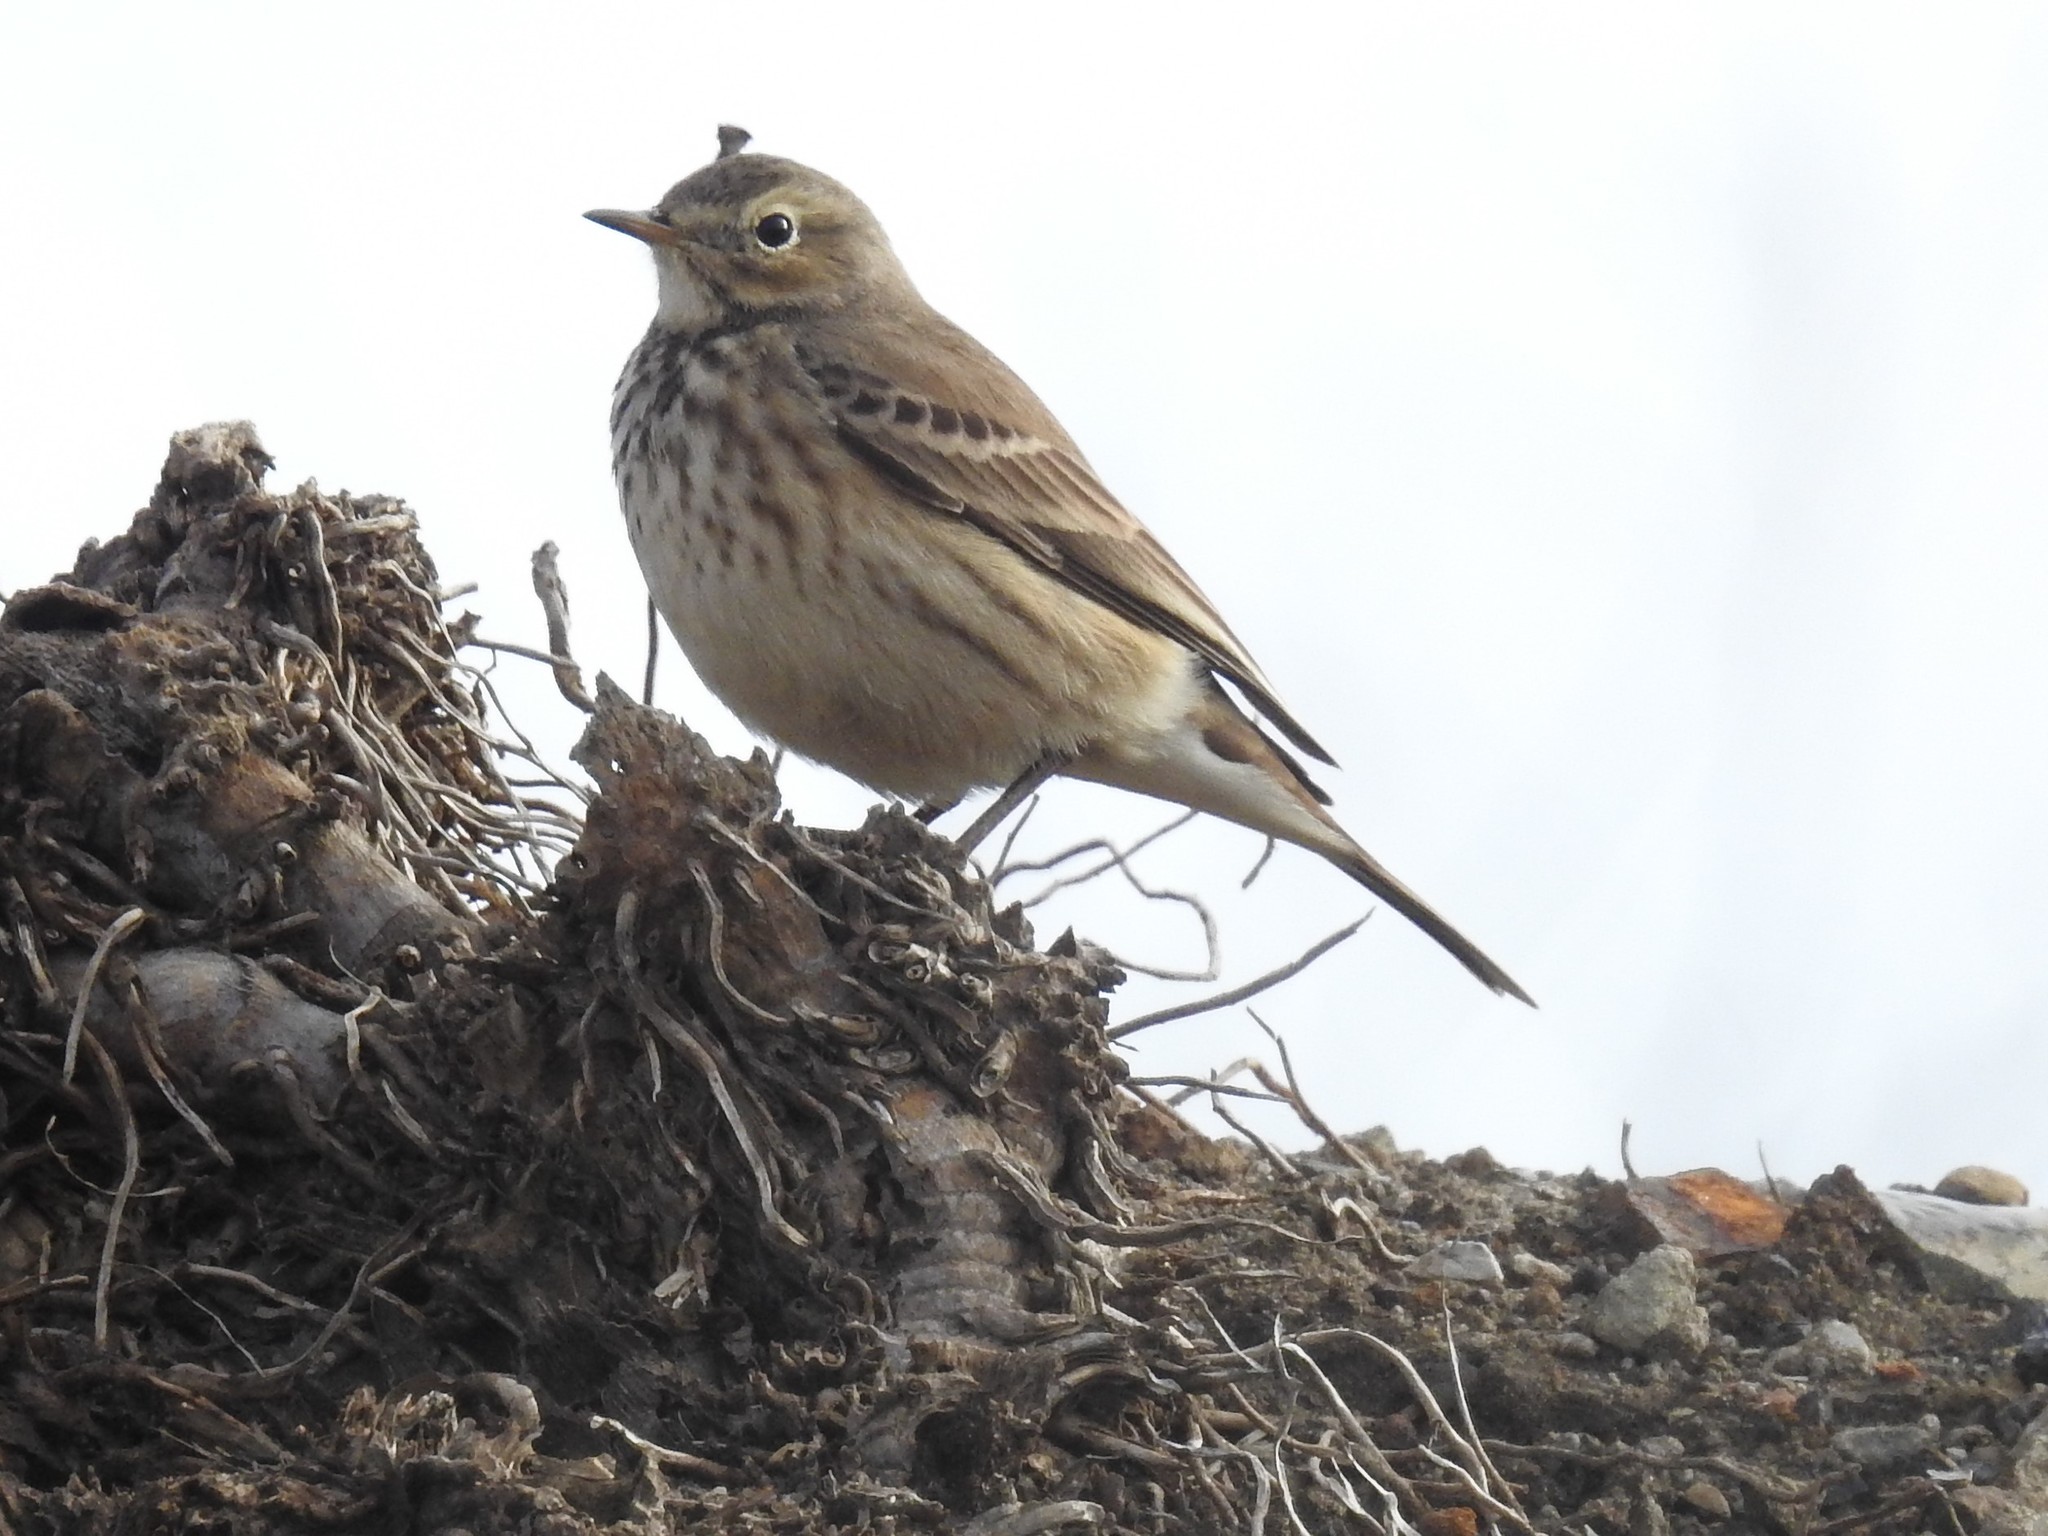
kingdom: Animalia
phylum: Chordata
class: Aves
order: Passeriformes
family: Motacillidae
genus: Anthus
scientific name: Anthus rubescens
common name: Buff-bellied pipit
